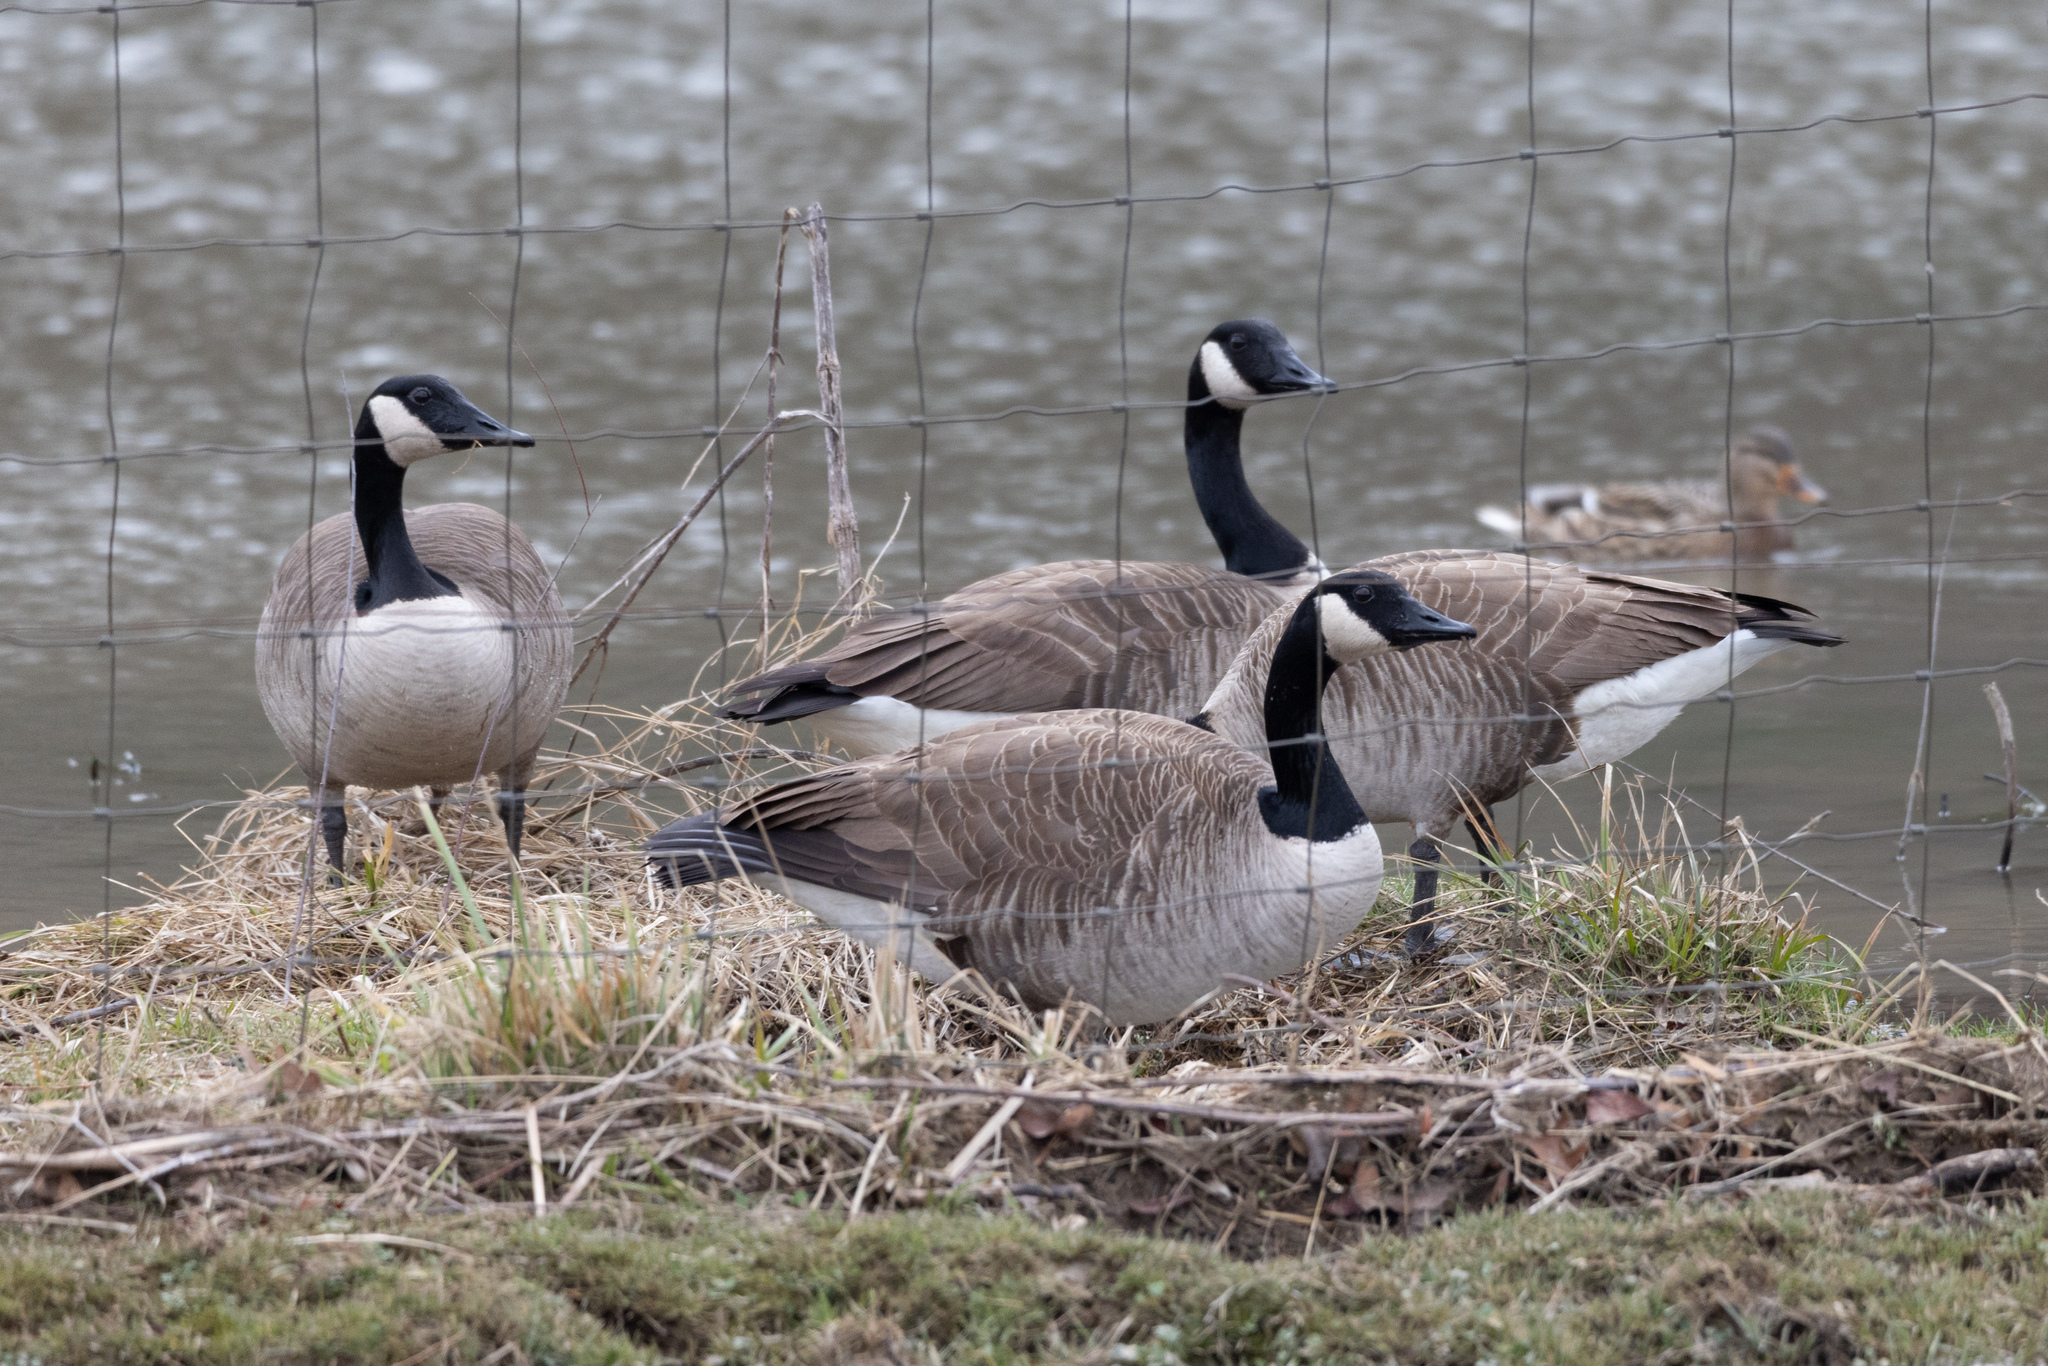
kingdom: Animalia
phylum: Chordata
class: Aves
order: Anseriformes
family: Anatidae
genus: Branta
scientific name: Branta canadensis
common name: Canada goose
